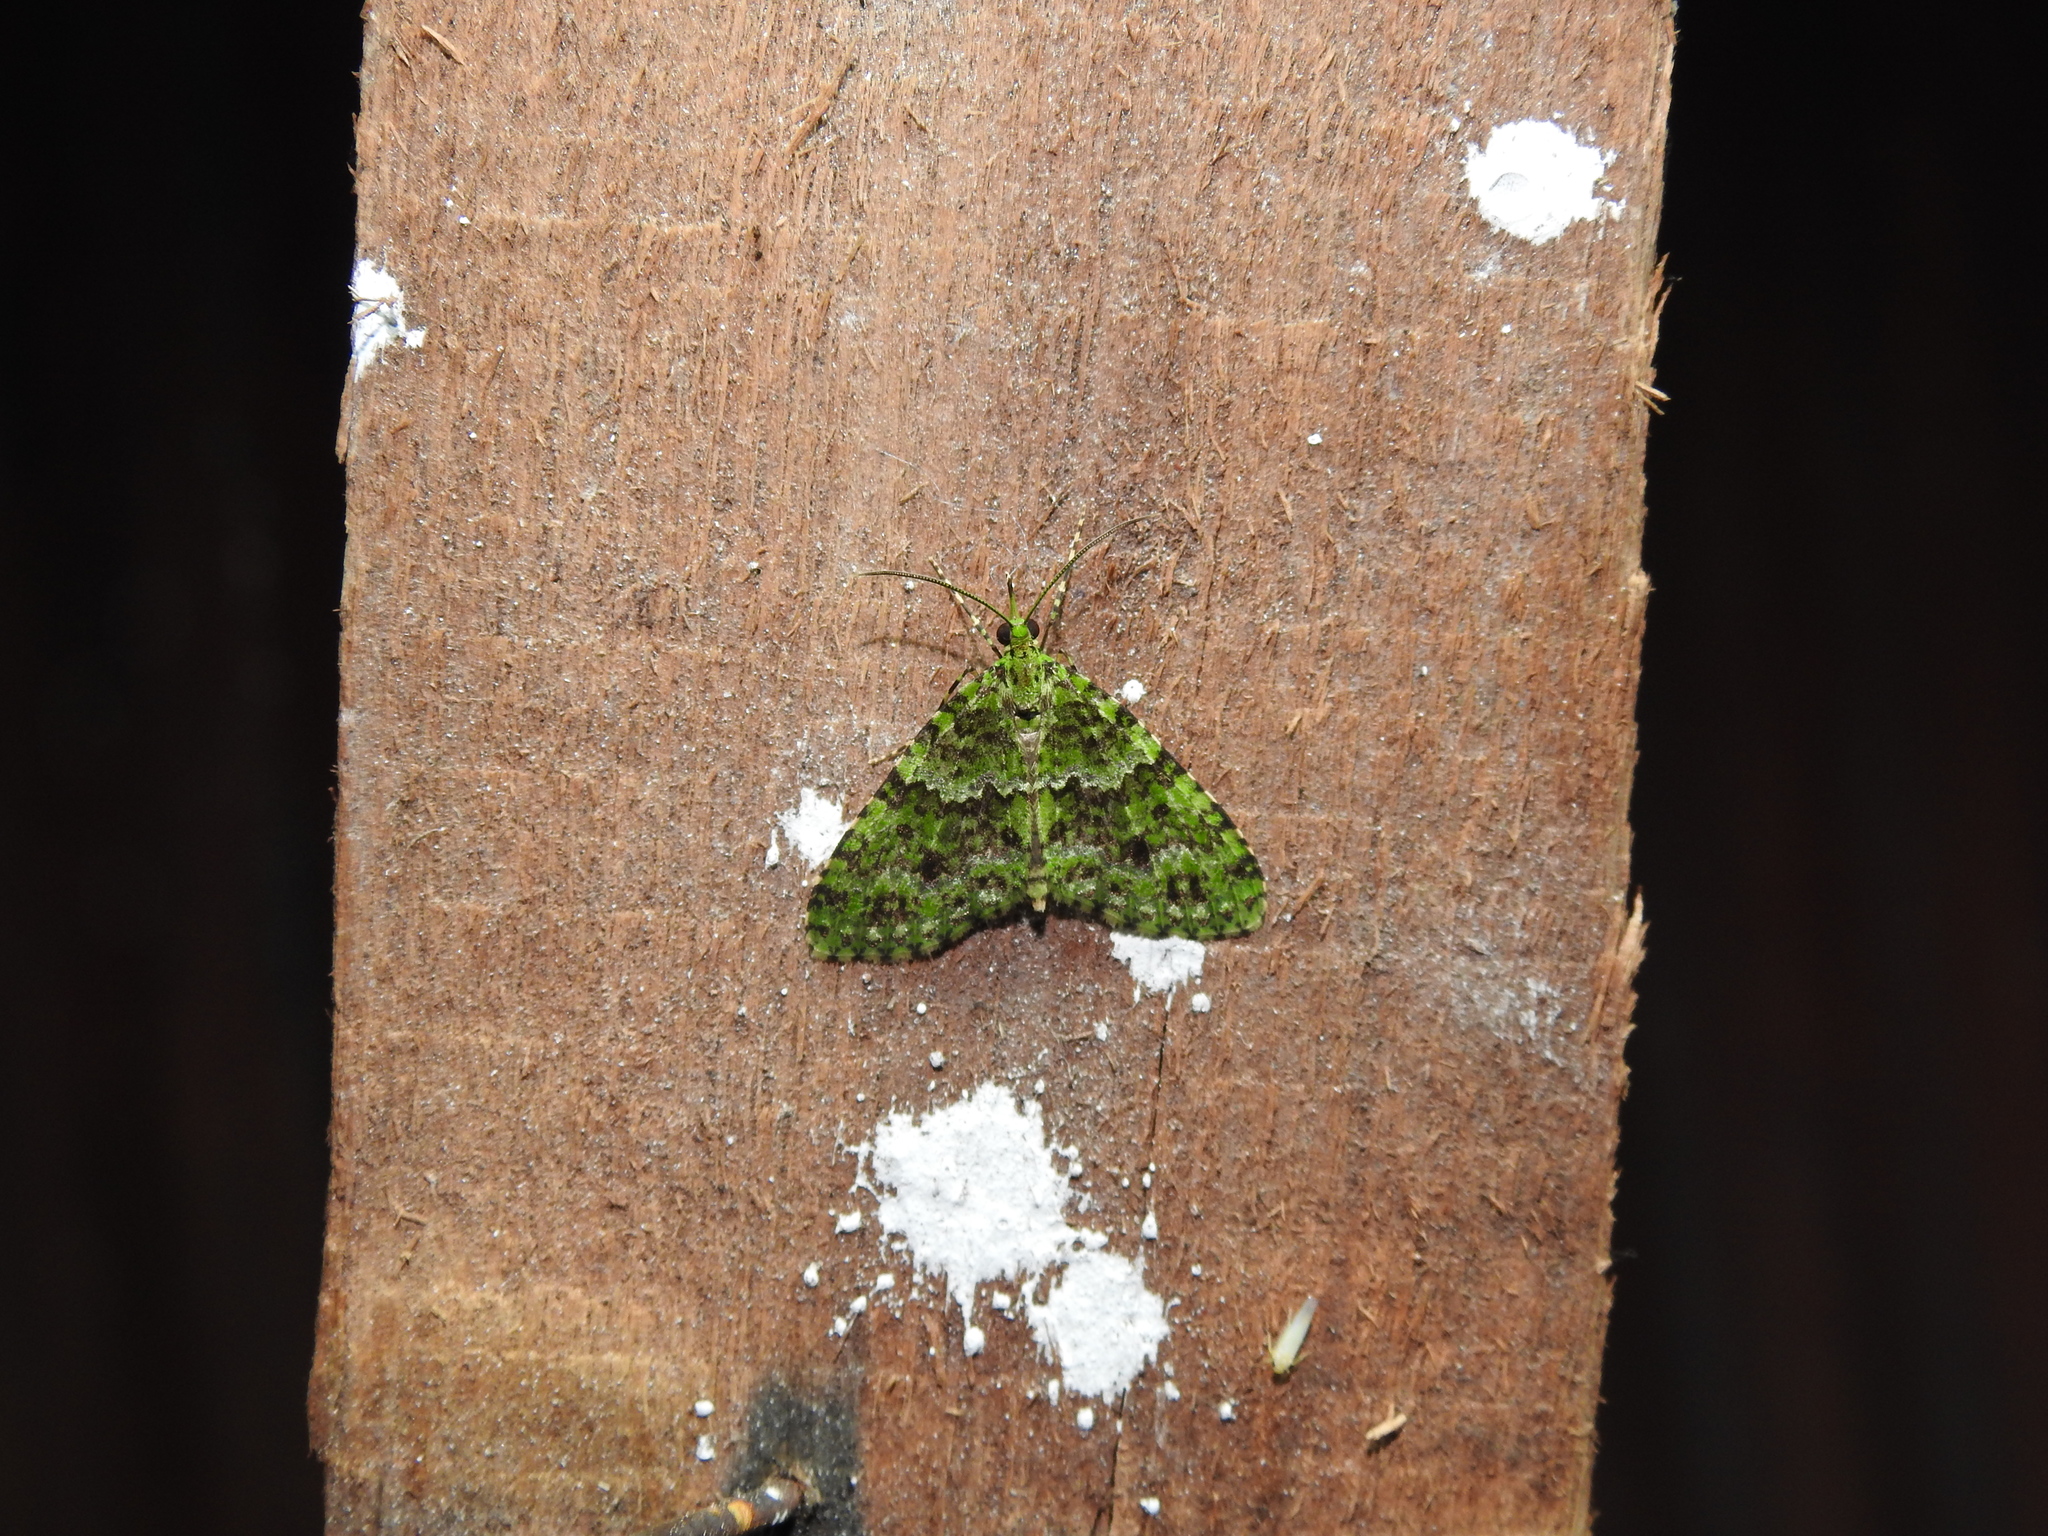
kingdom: Animalia
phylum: Arthropoda
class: Insecta
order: Lepidoptera
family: Geometridae
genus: Tristeirometa
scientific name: Tristeirometa auxostira
